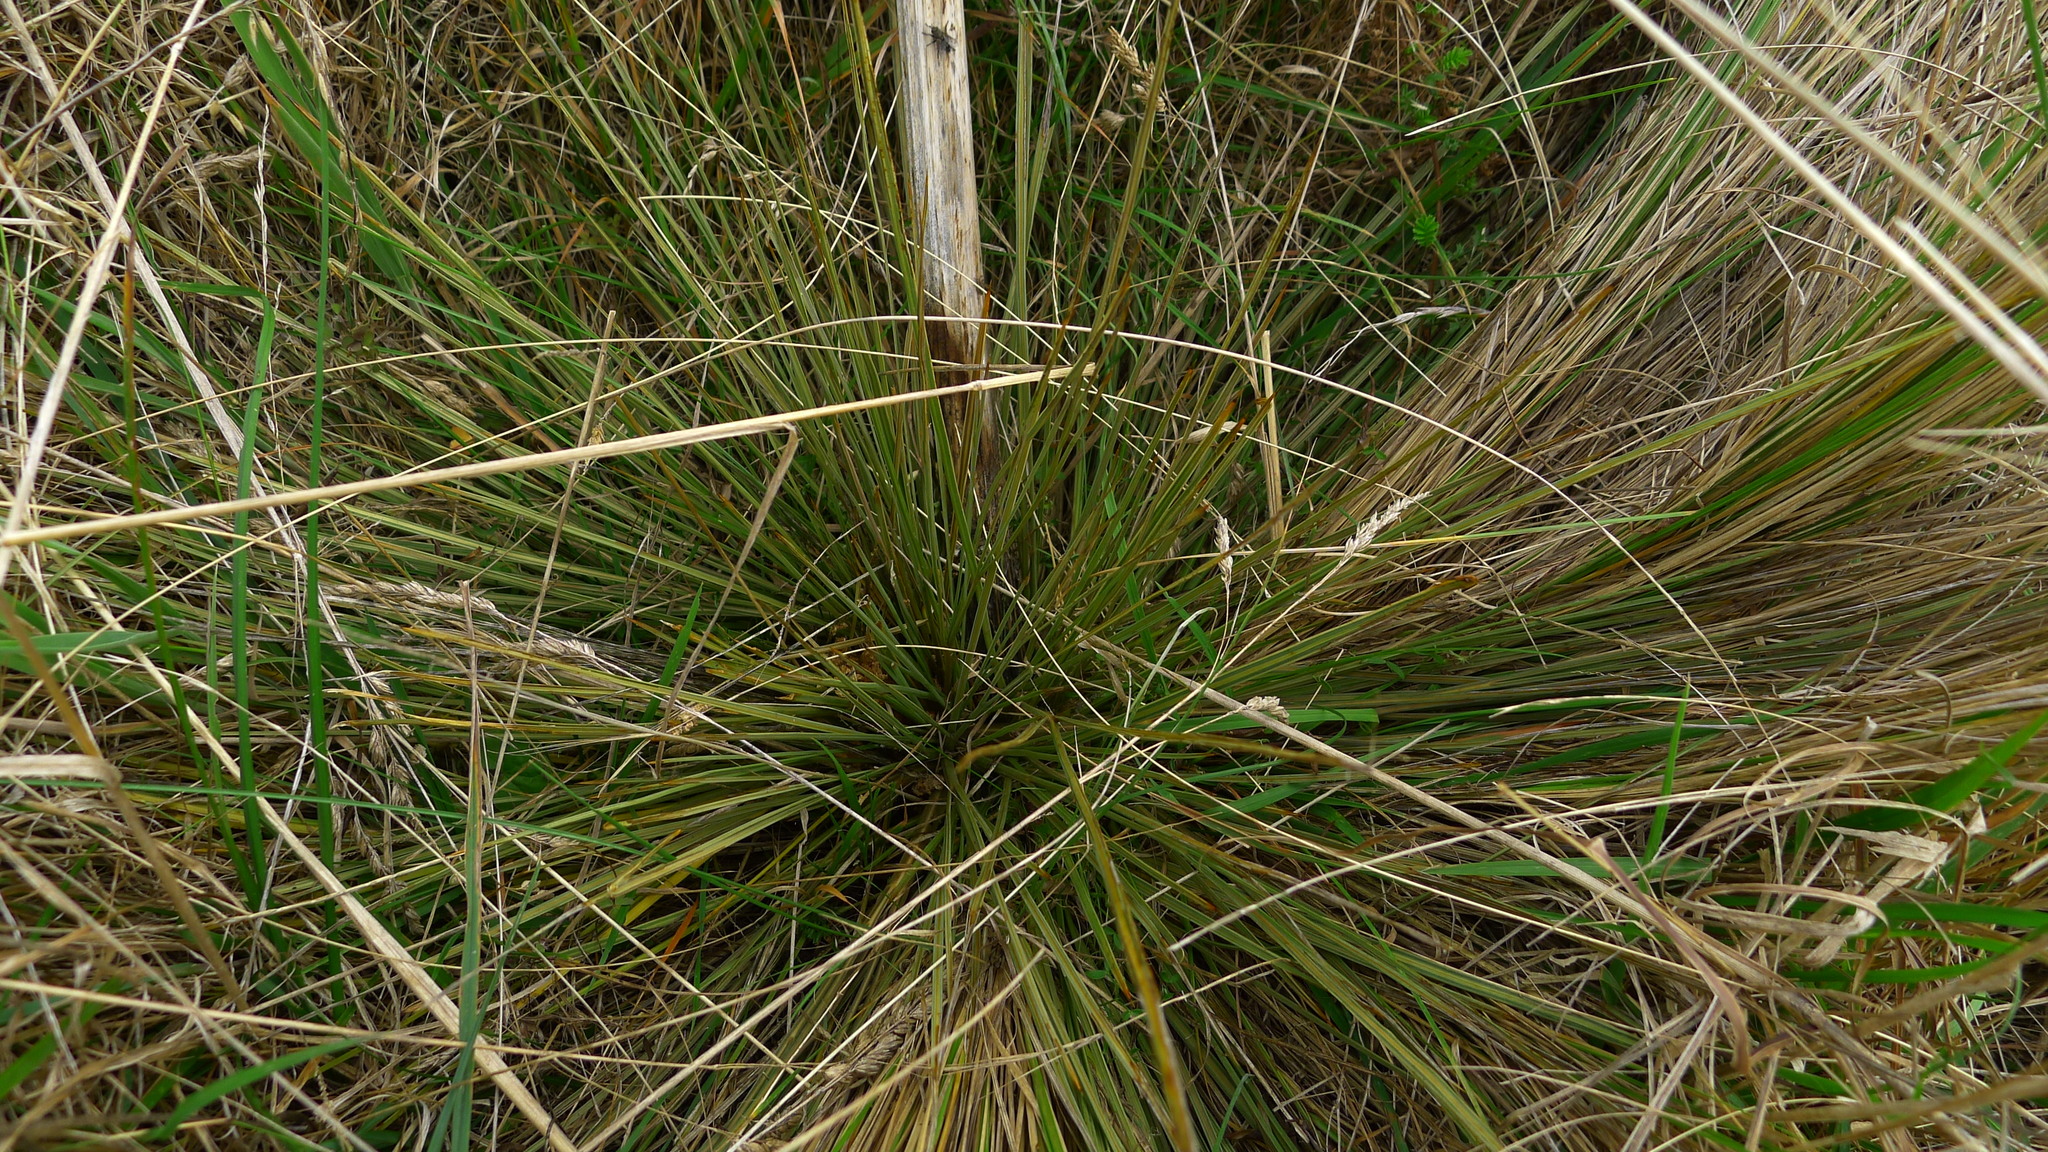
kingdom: Plantae
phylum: Tracheophyta
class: Magnoliopsida
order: Apiales
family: Apiaceae
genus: Aciphylla
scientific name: Aciphylla subflabellata
